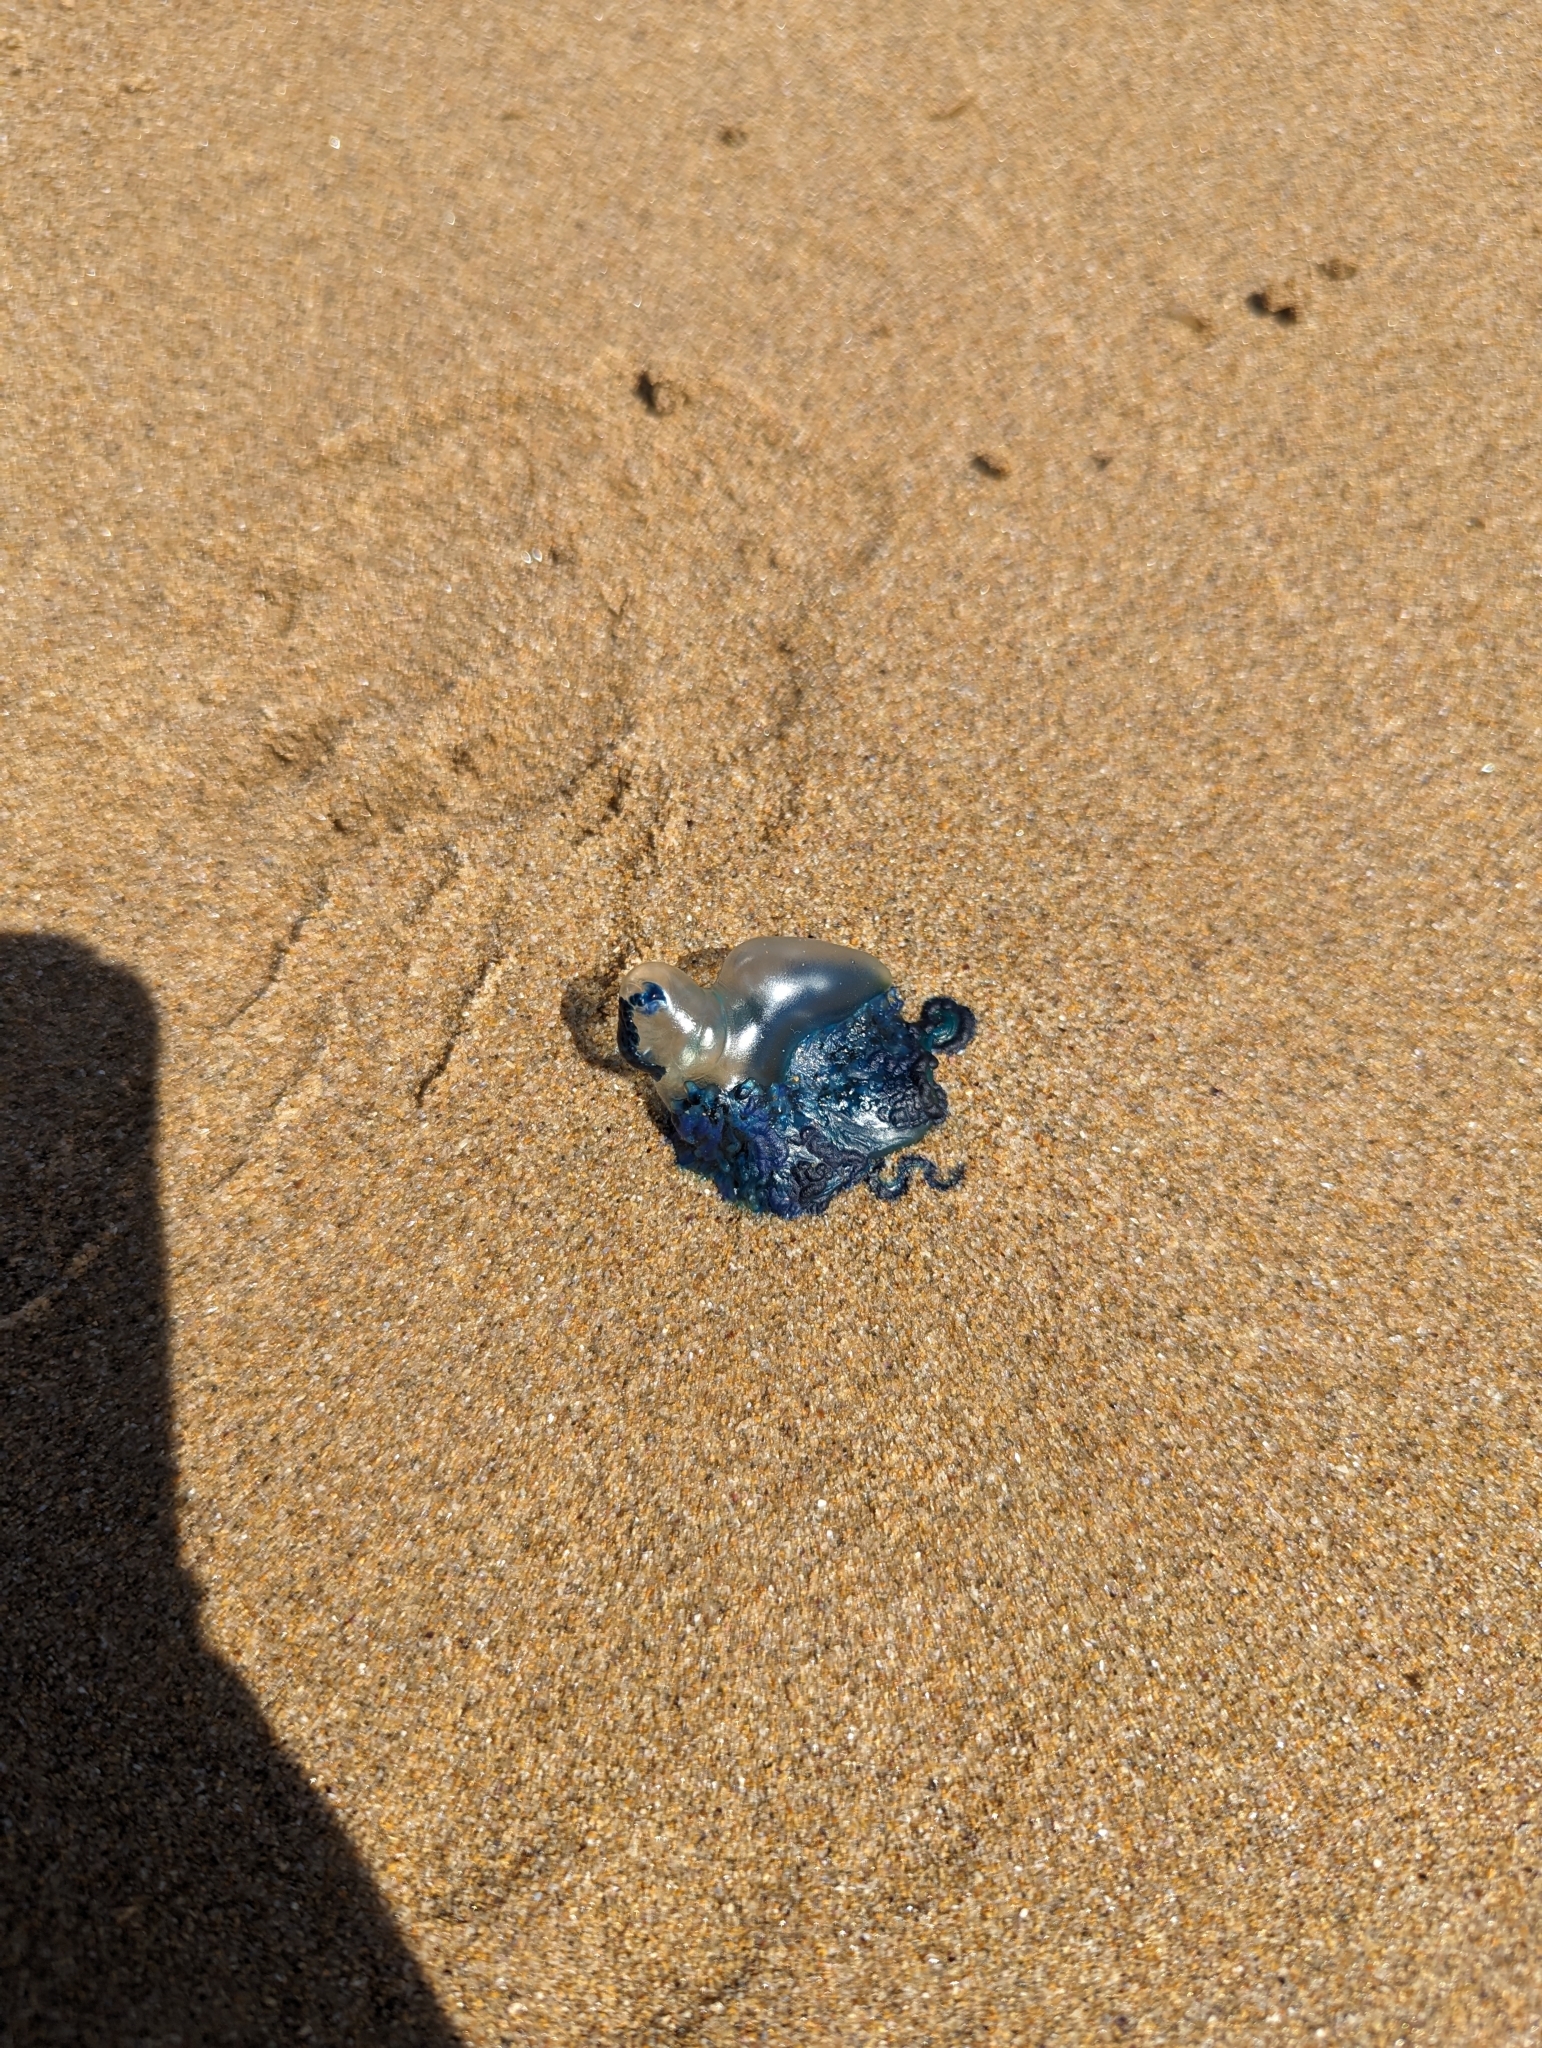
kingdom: Animalia
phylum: Cnidaria
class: Hydrozoa
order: Siphonophorae
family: Physaliidae
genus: Physalia
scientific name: Physalia physalis
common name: Portuguese man-of-war
